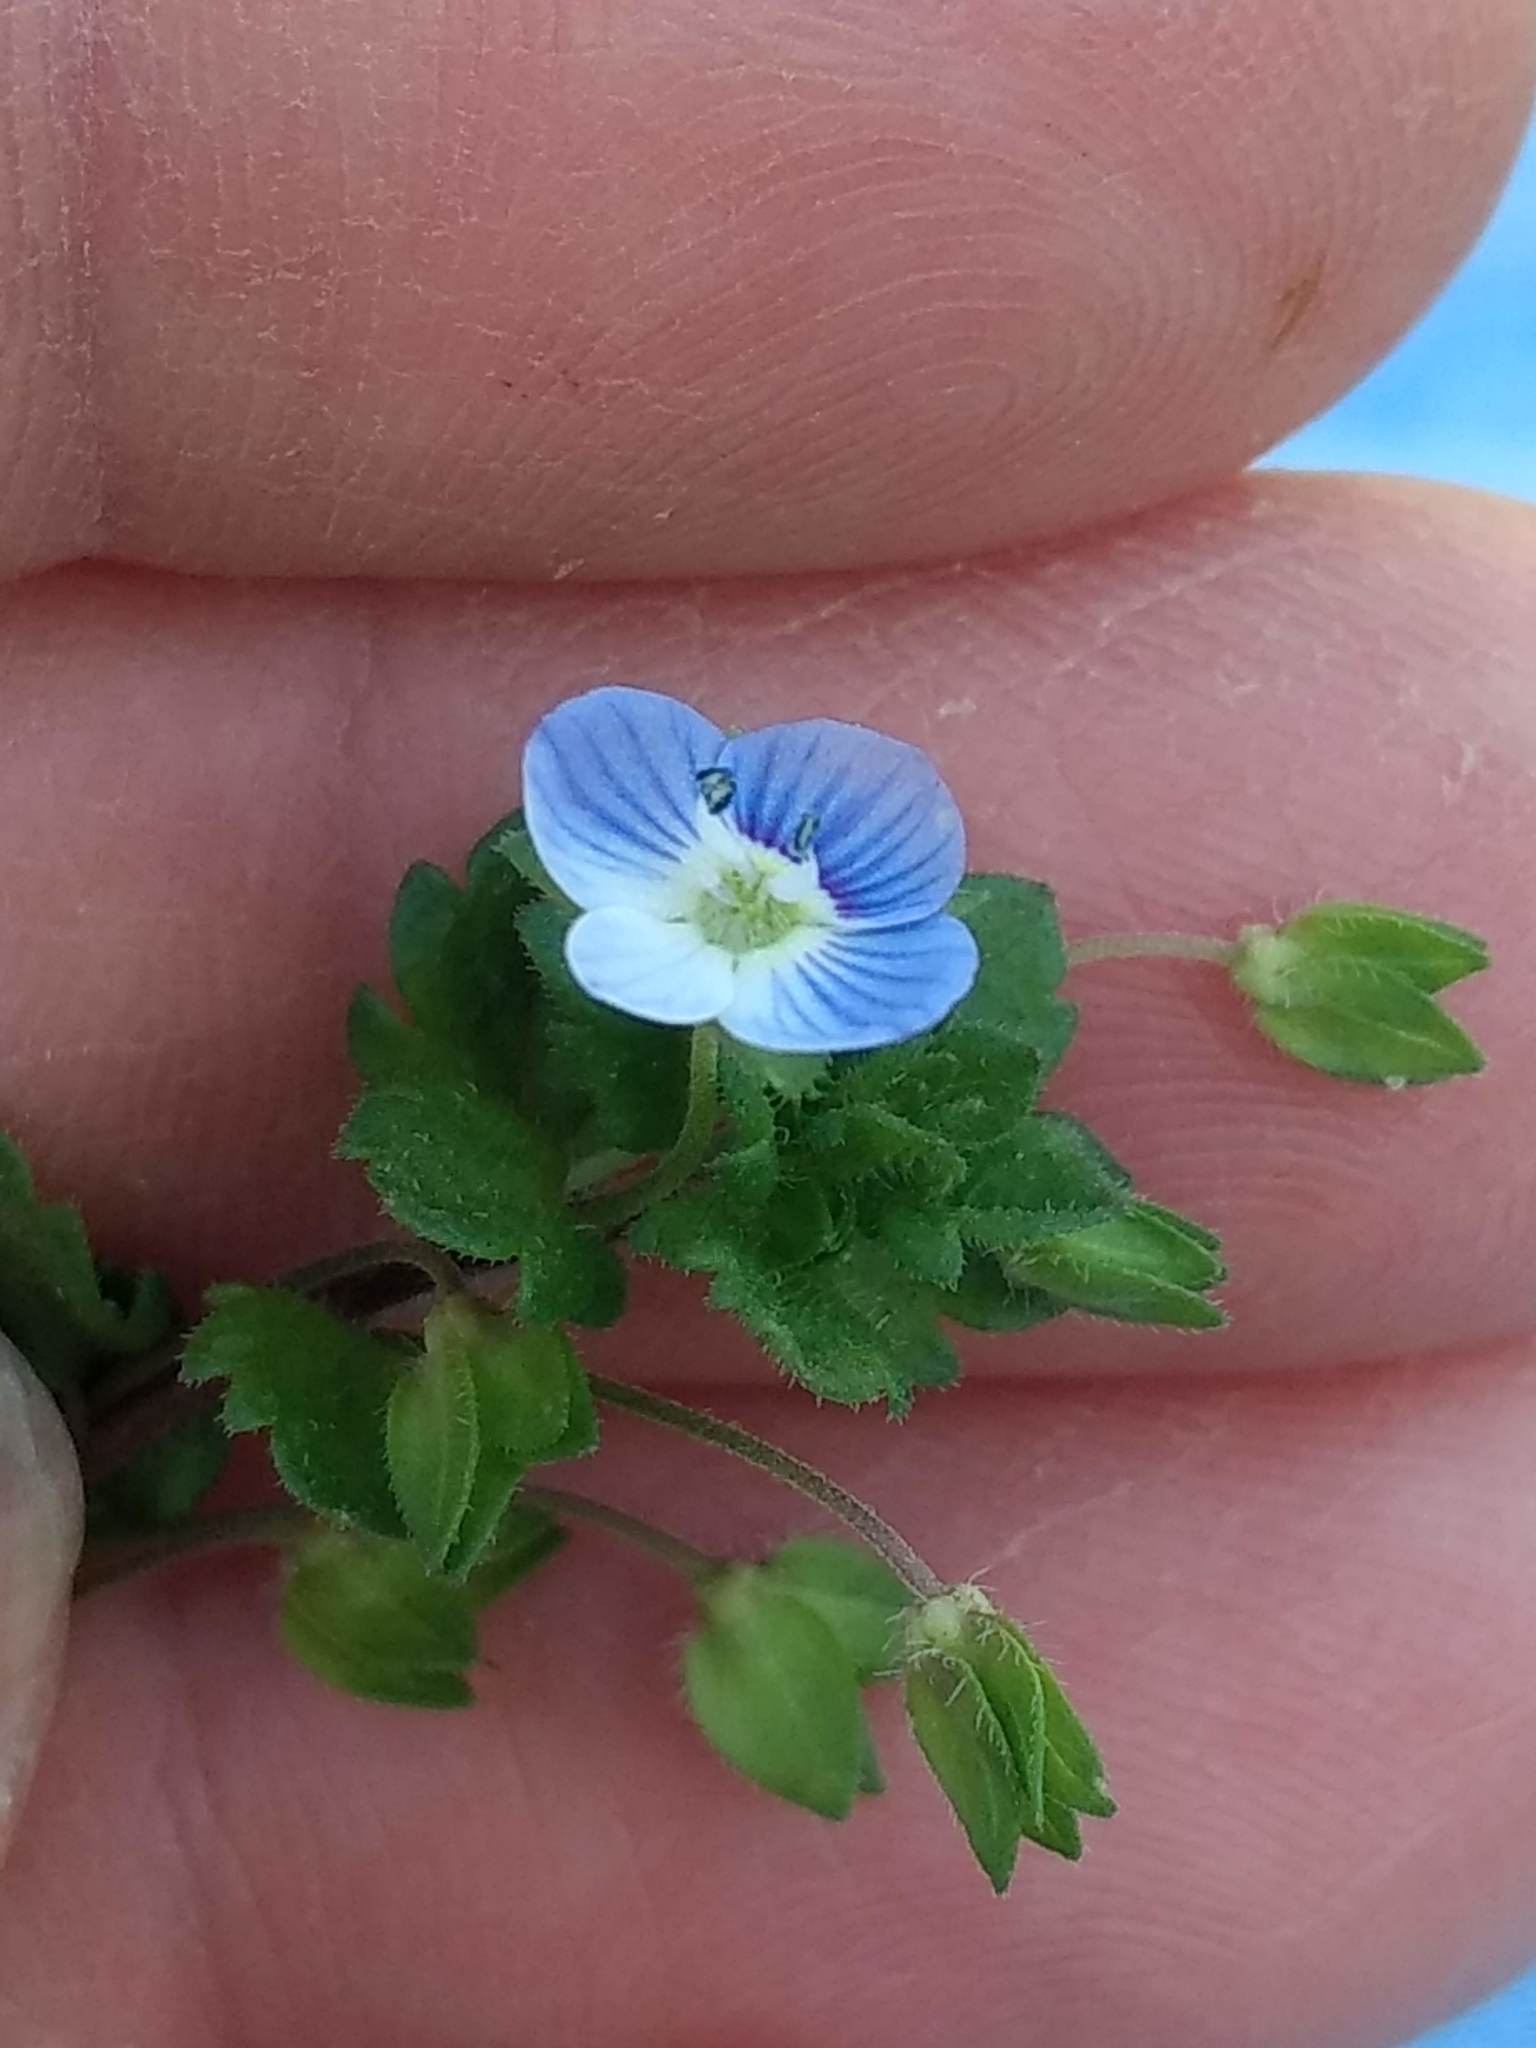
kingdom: Plantae
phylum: Tracheophyta
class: Magnoliopsida
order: Lamiales
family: Plantaginaceae
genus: Veronica
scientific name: Veronica persica
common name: Common field-speedwell
